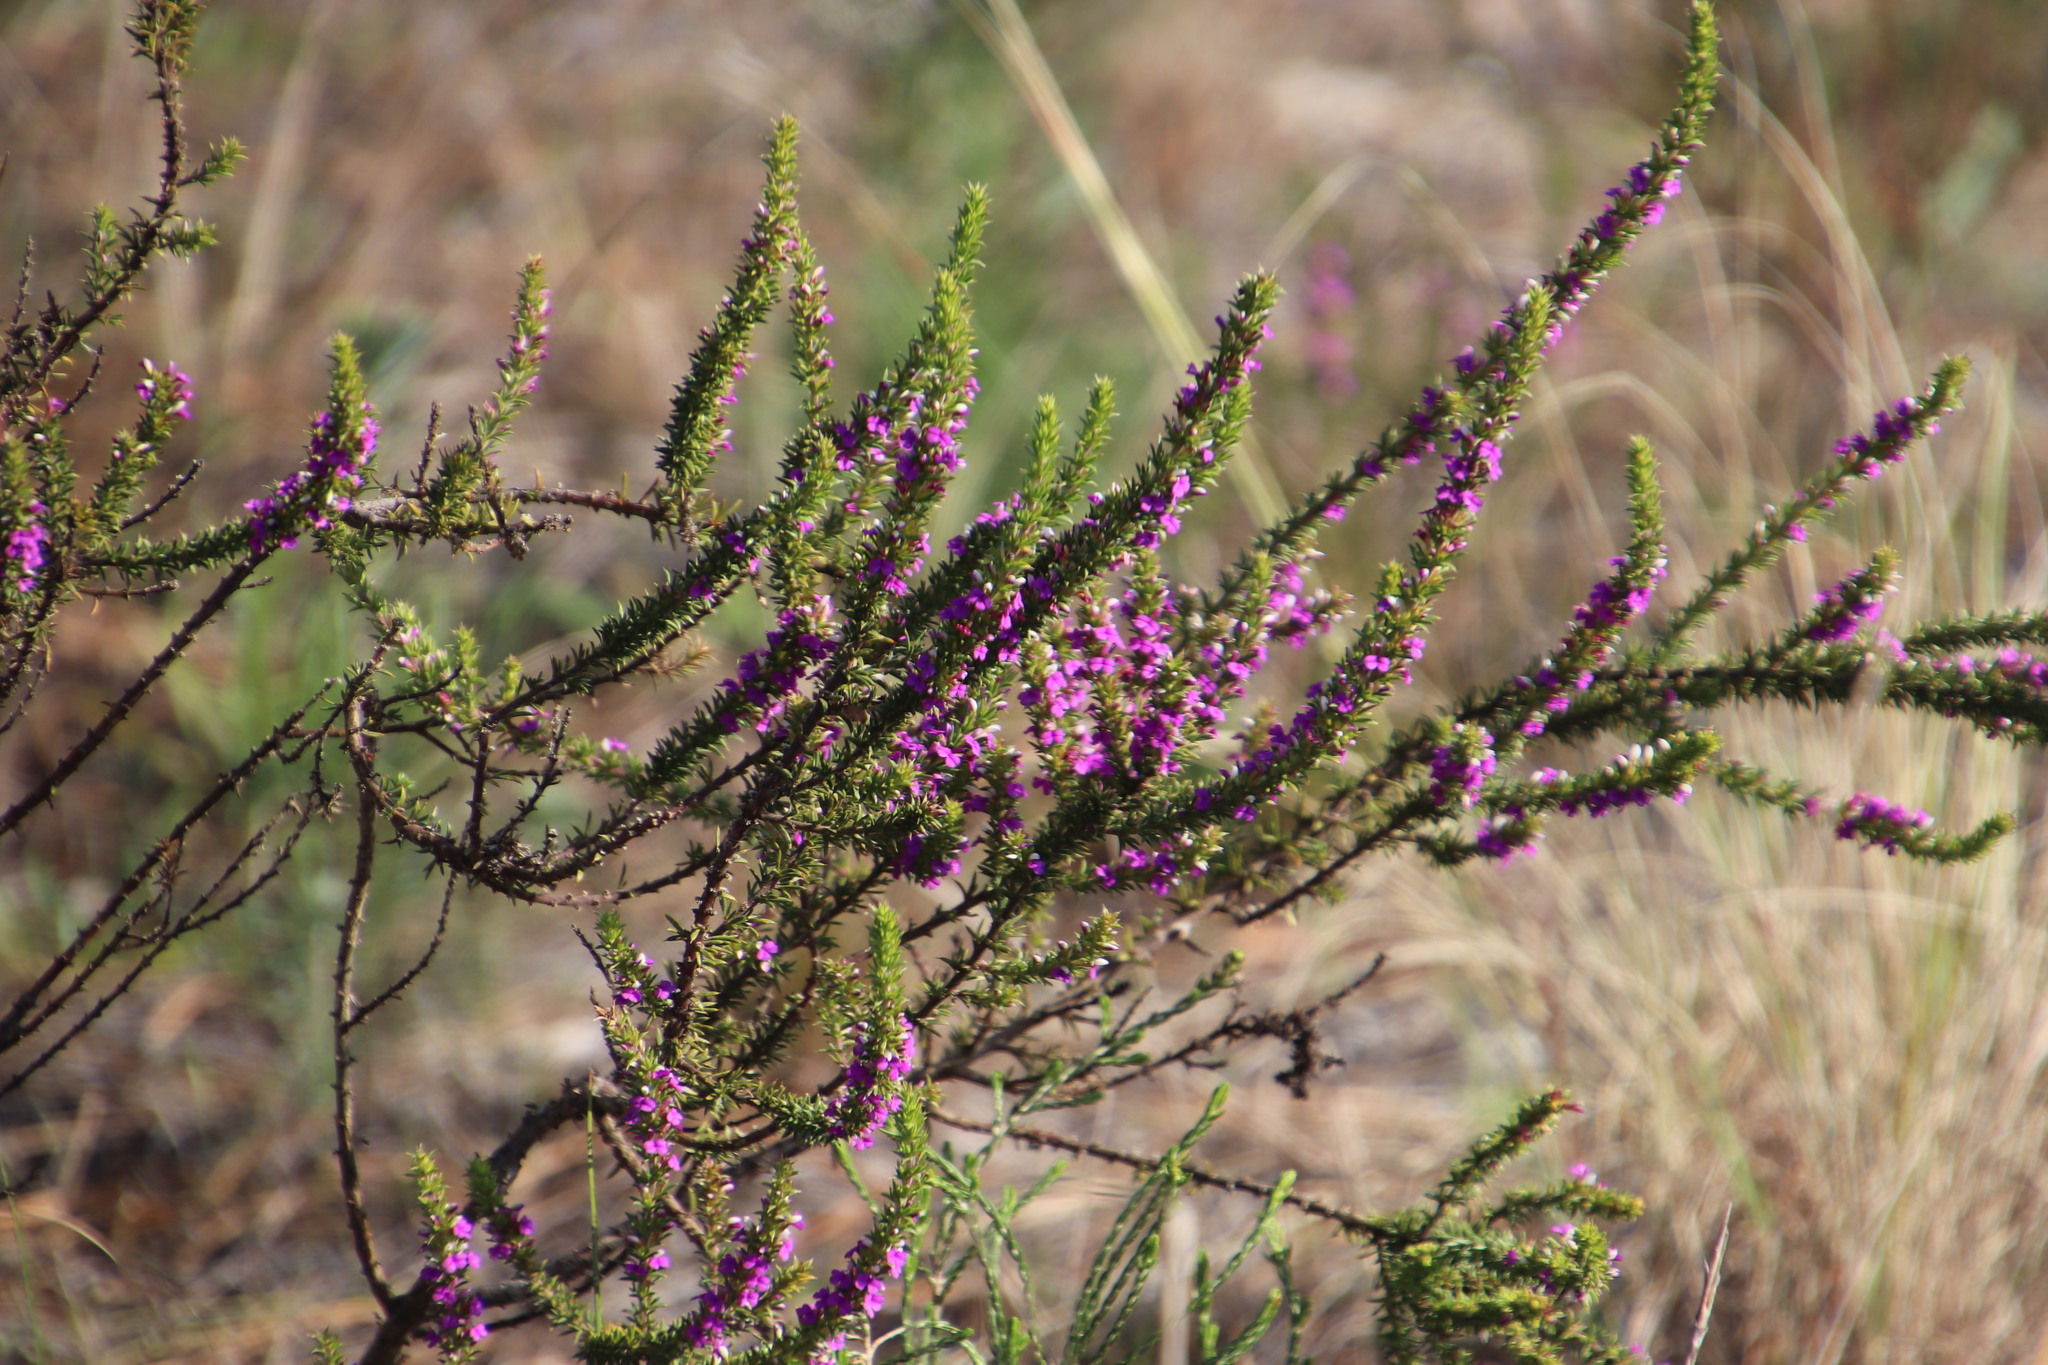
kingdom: Plantae
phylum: Tracheophyta
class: Magnoliopsida
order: Fabales
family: Polygalaceae
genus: Muraltia
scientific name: Muraltia heisteria
